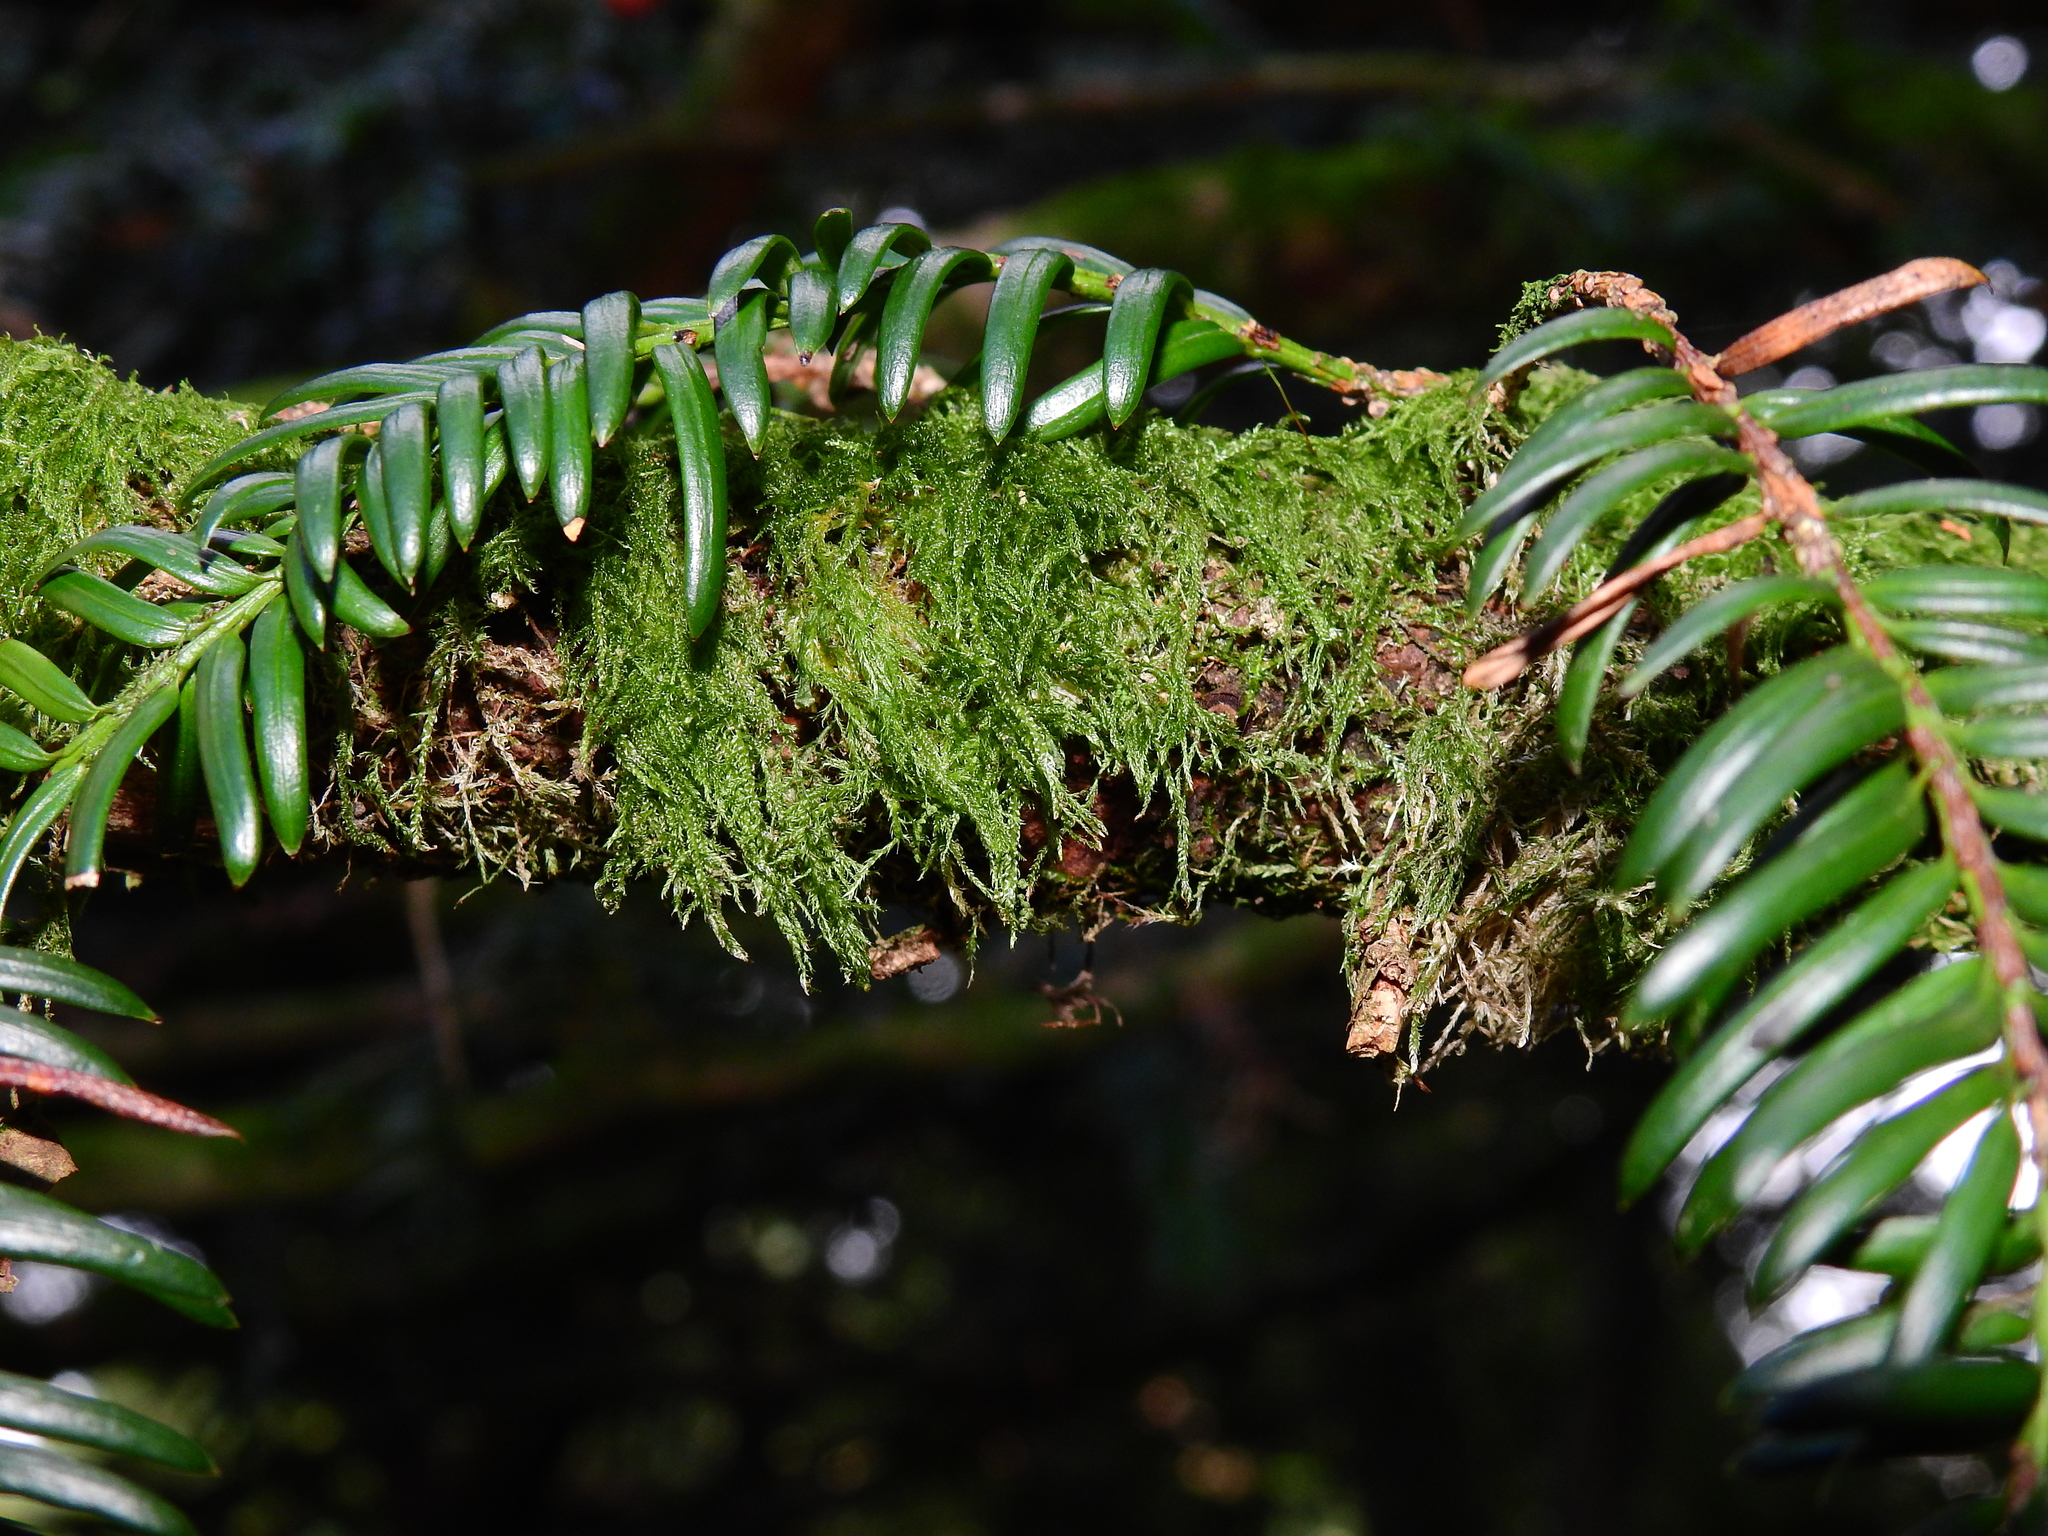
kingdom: Plantae
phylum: Tracheophyta
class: Pinopsida
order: Pinales
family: Taxaceae
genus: Taxus
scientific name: Taxus baccata
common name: Yew
